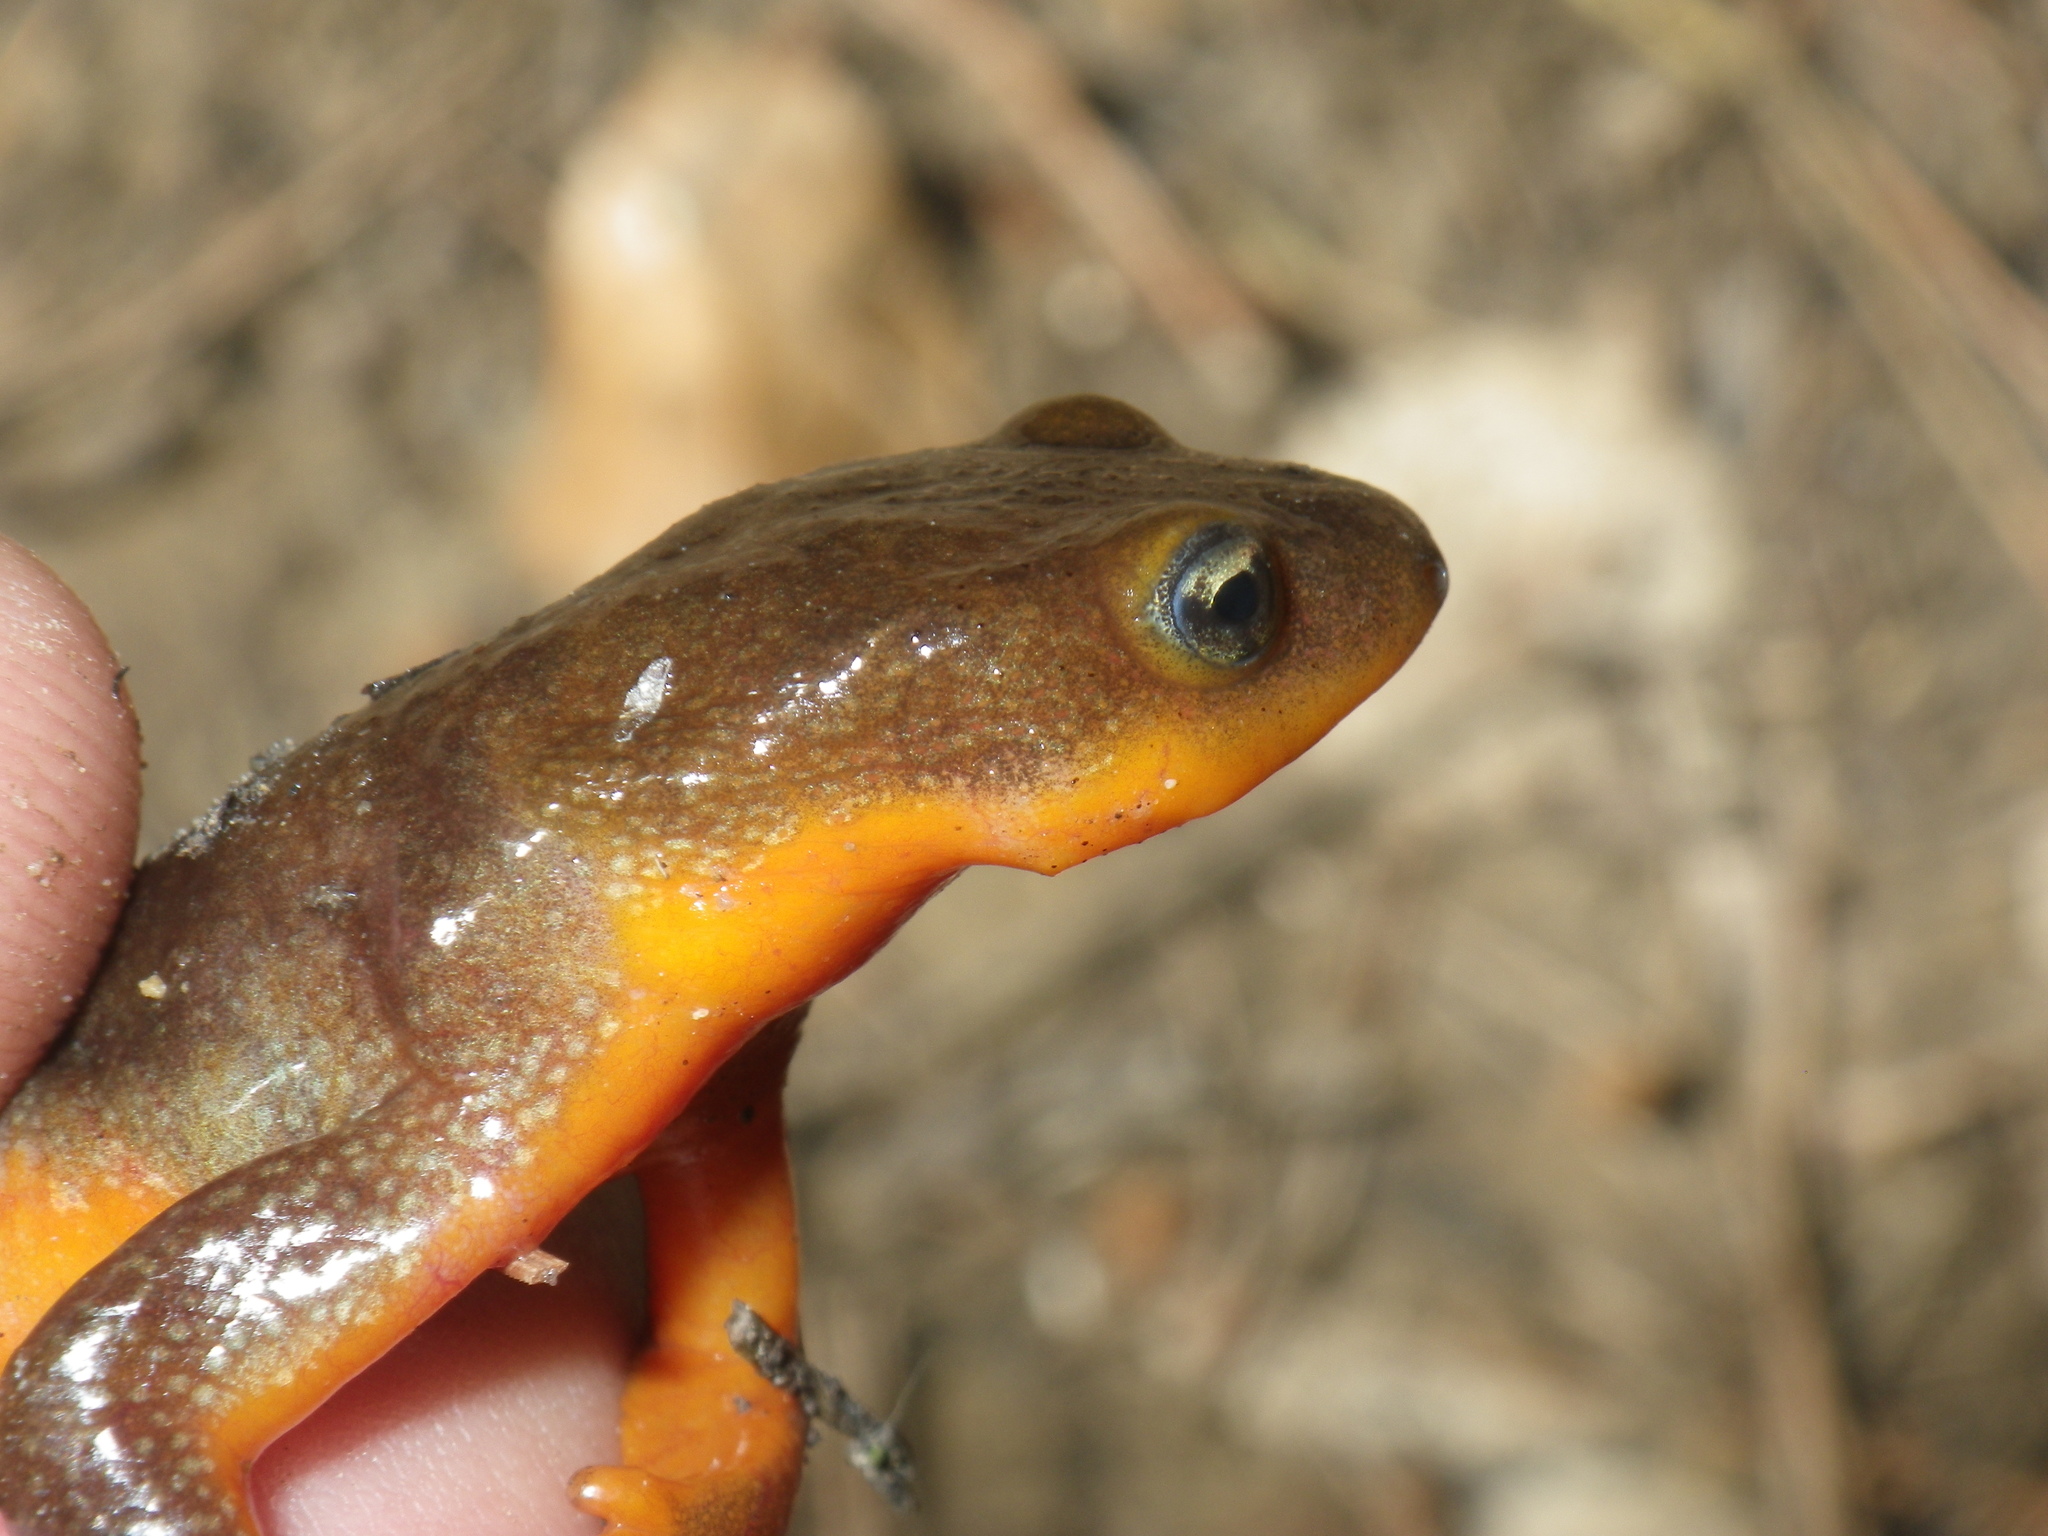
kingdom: Animalia
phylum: Chordata
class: Amphibia
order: Caudata
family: Salamandridae
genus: Taricha
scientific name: Taricha torosa
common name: California newt
